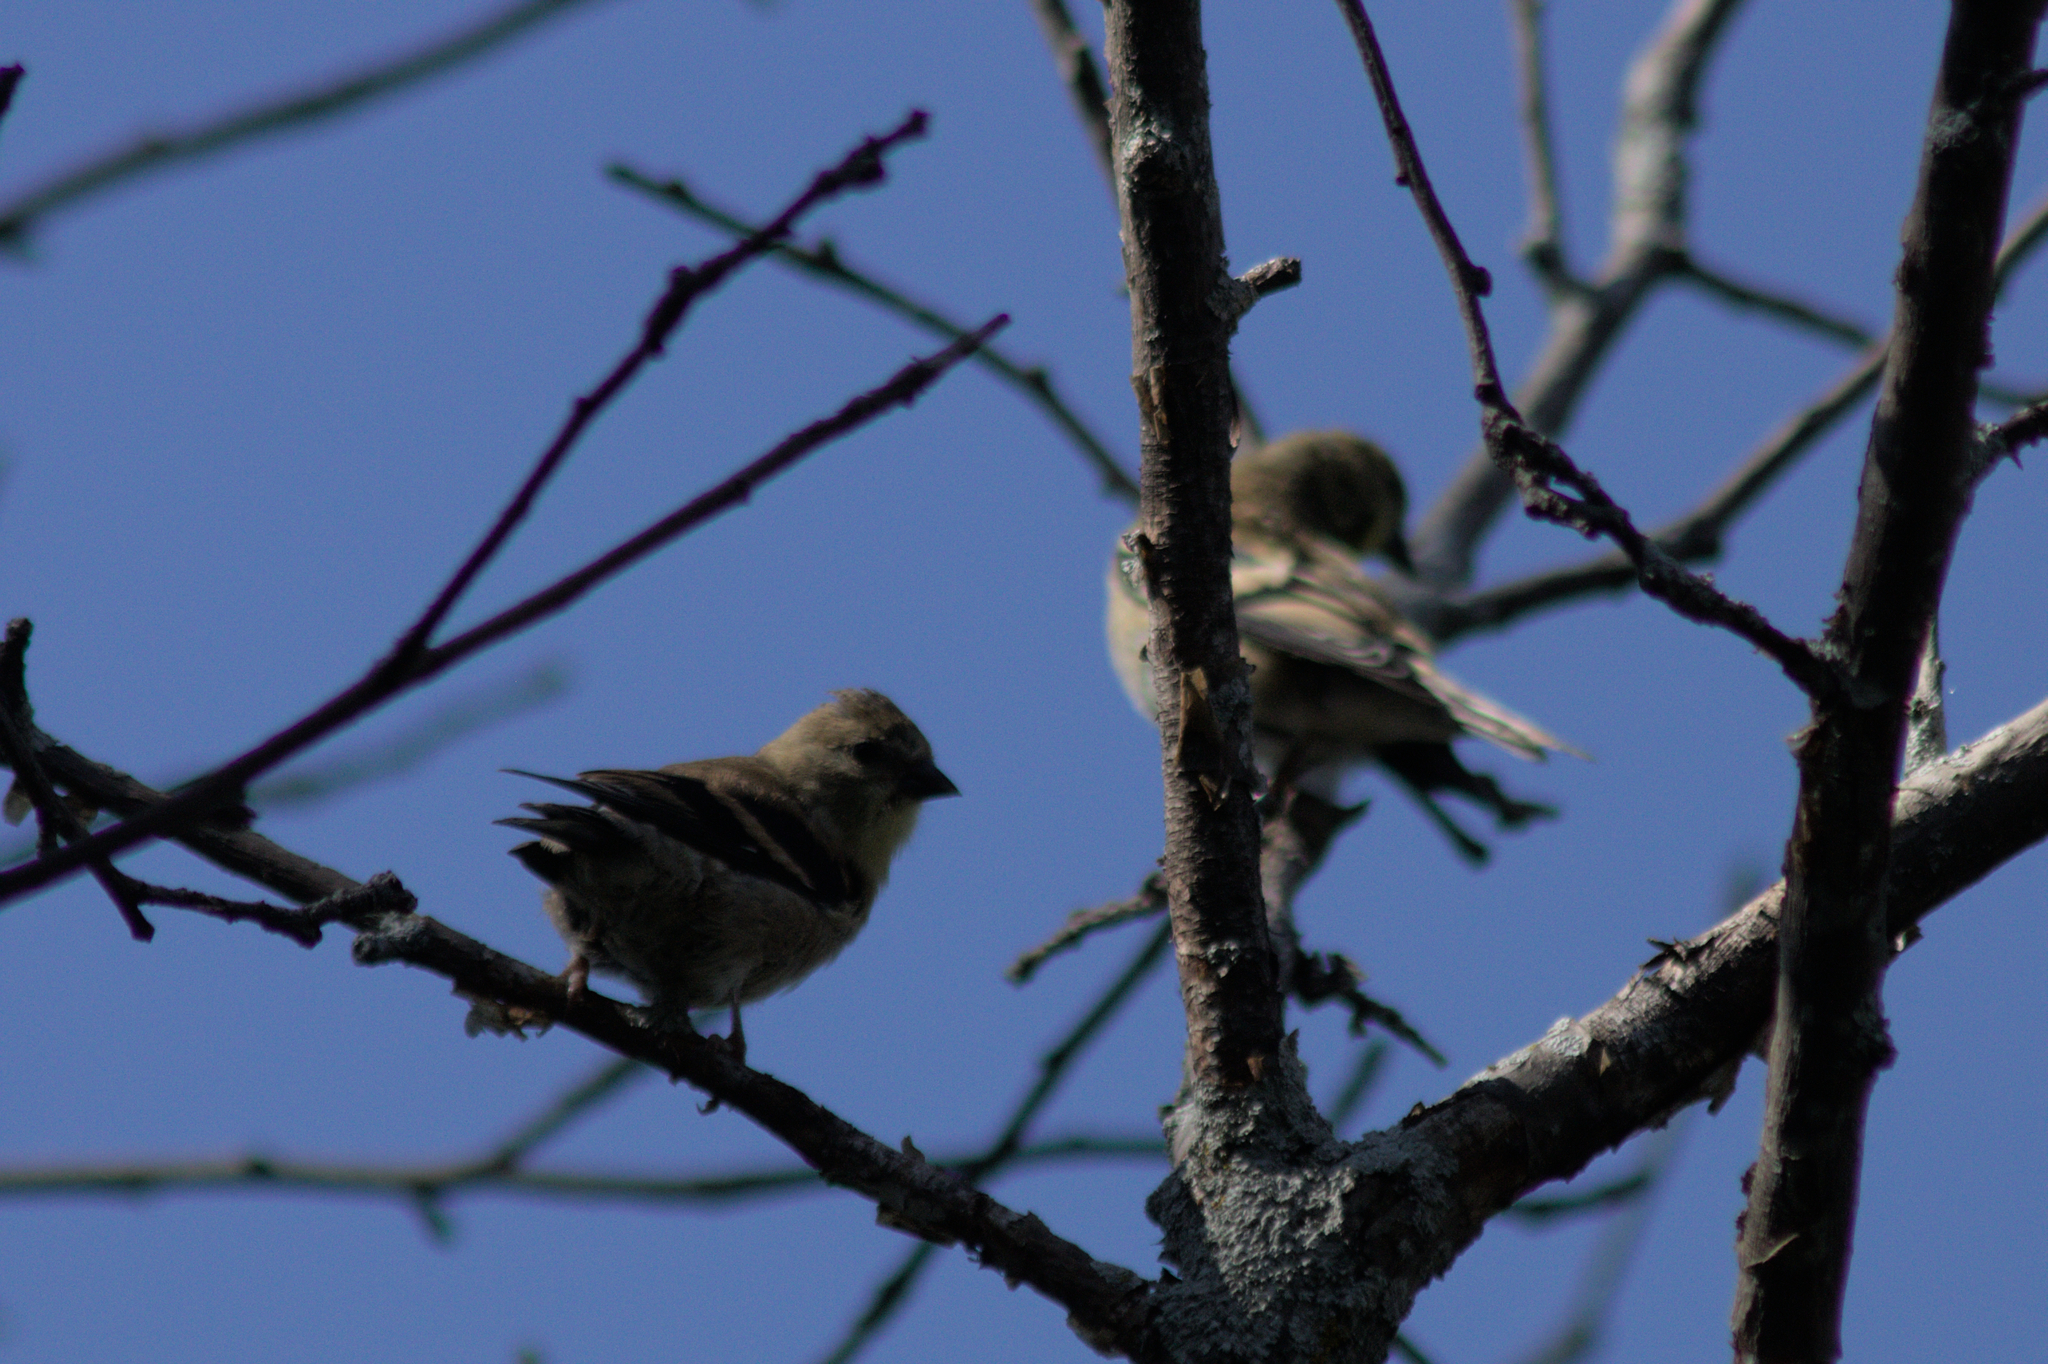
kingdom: Animalia
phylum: Chordata
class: Aves
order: Passeriformes
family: Fringillidae
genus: Spinus
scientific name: Spinus tristis
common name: American goldfinch
